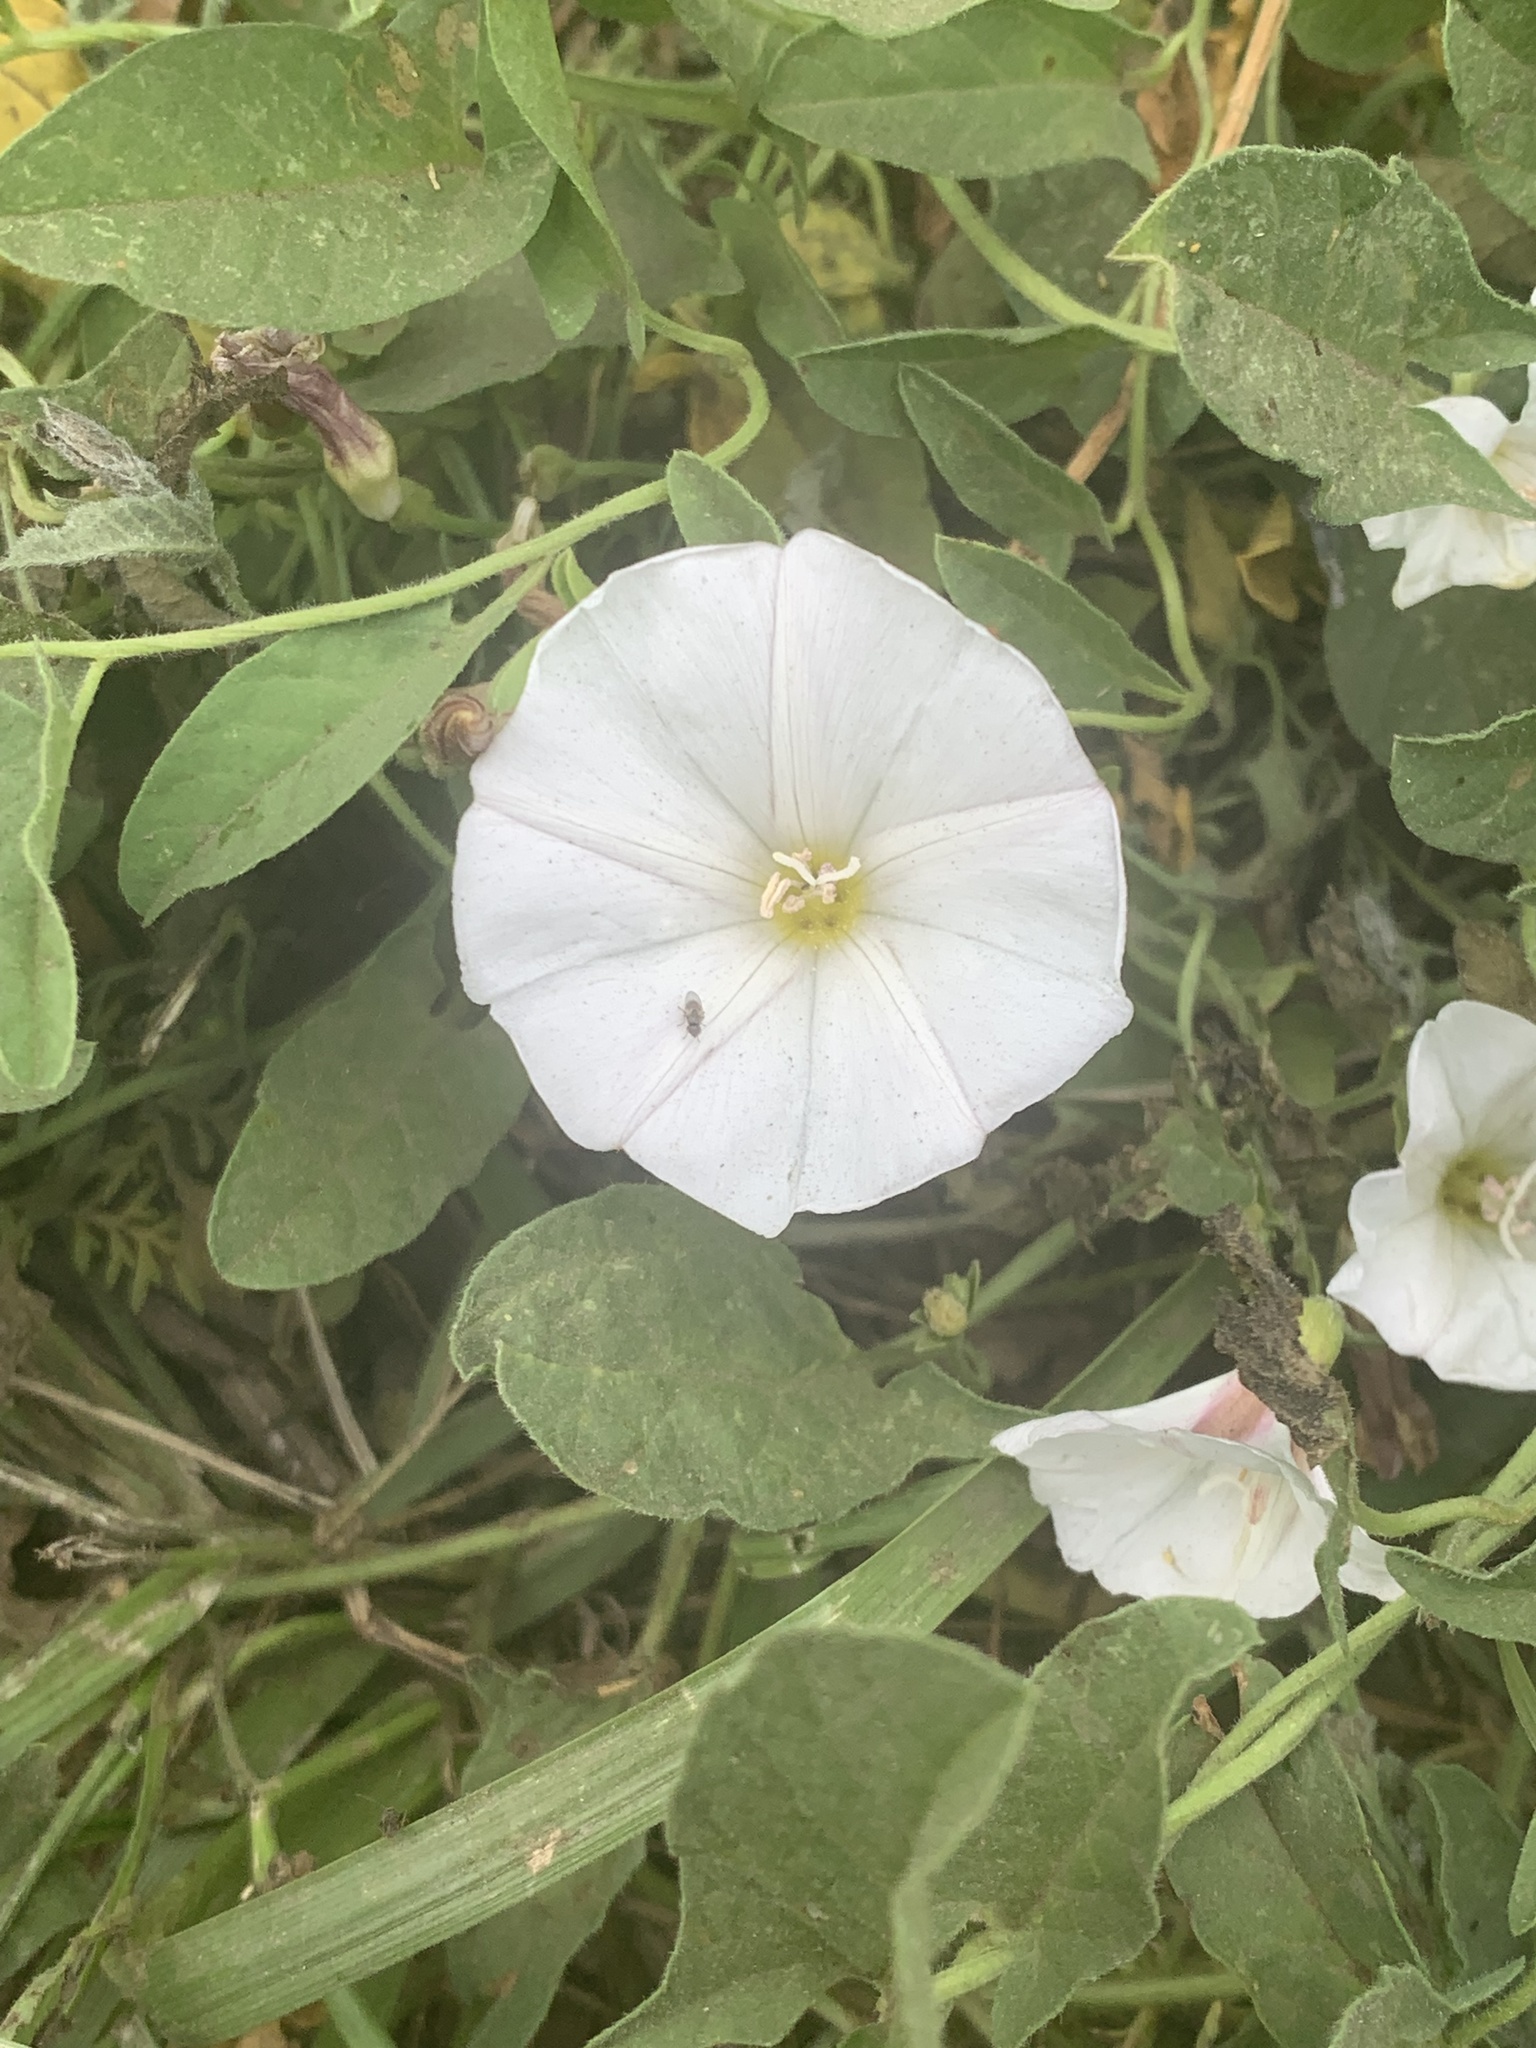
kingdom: Plantae
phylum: Tracheophyta
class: Magnoliopsida
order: Solanales
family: Convolvulaceae
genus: Convolvulus
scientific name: Convolvulus arvensis
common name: Field bindweed
